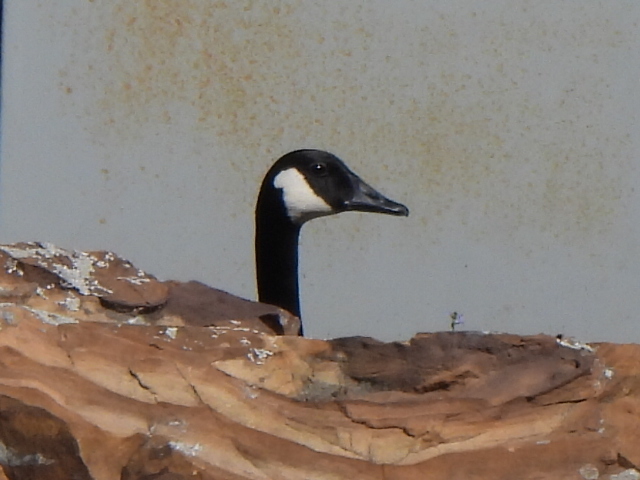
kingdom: Animalia
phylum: Chordata
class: Aves
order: Anseriformes
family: Anatidae
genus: Branta
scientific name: Branta canadensis
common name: Canada goose
